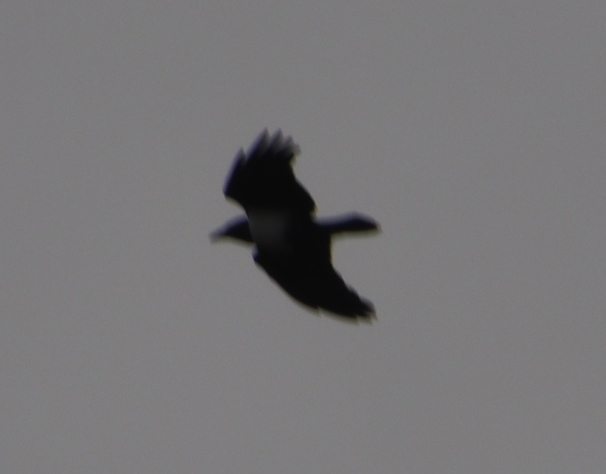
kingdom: Animalia
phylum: Chordata
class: Aves
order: Passeriformes
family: Corvidae
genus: Corvus
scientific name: Corvus albus
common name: Pied crow
